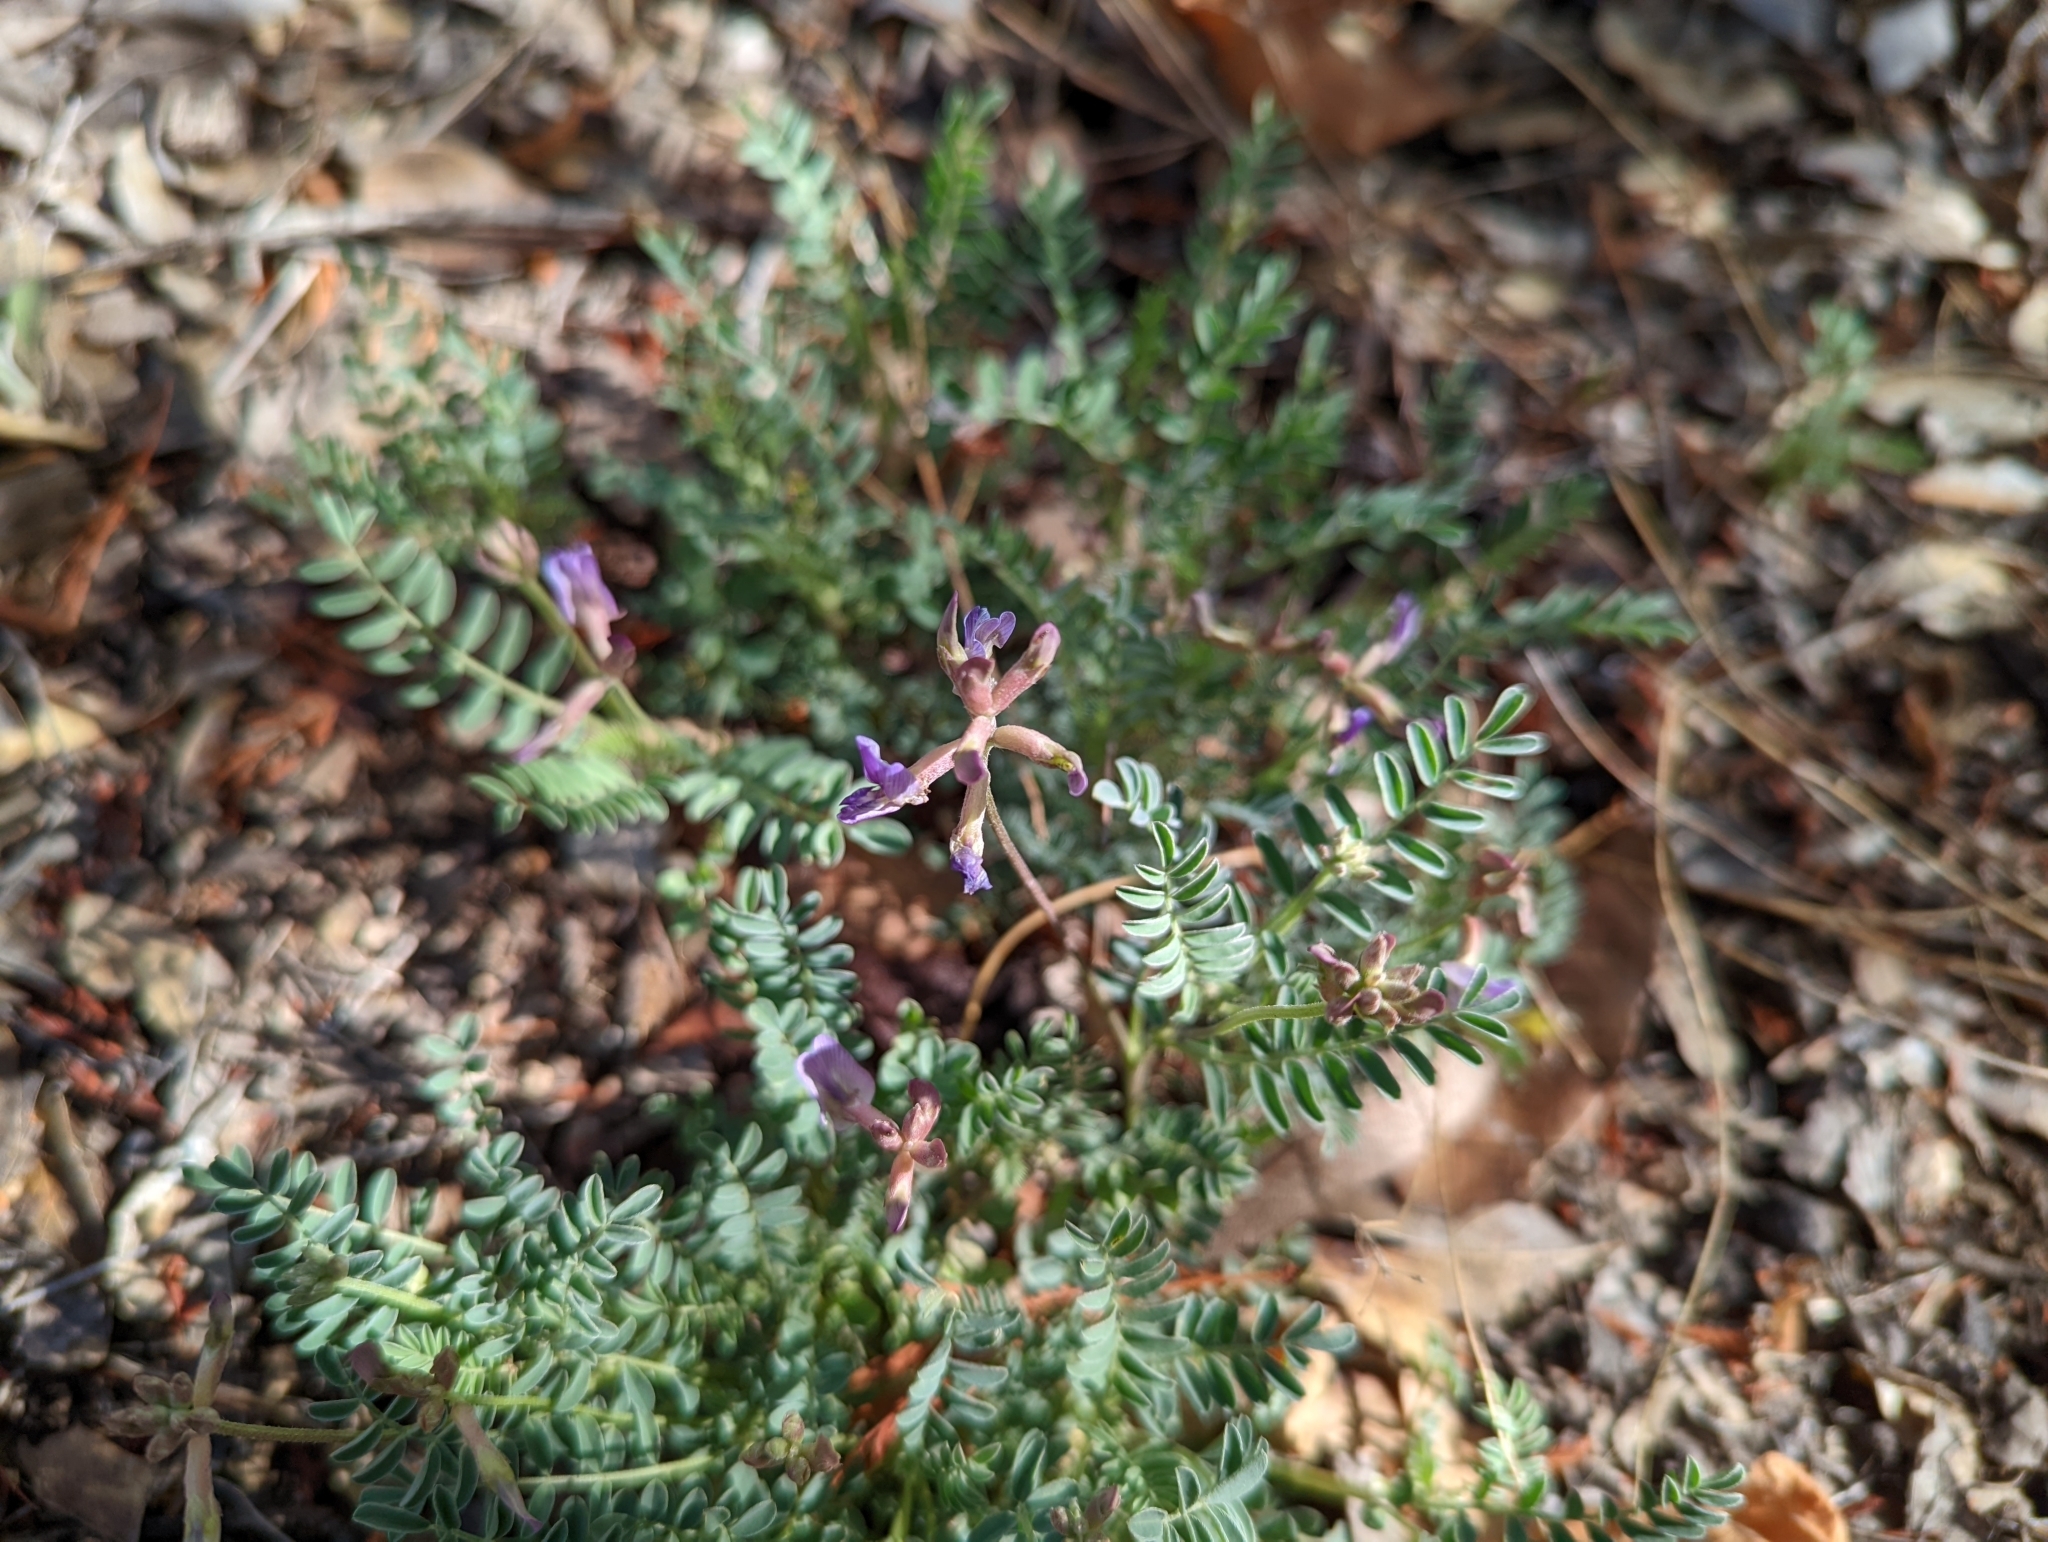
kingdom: Plantae
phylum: Tracheophyta
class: Magnoliopsida
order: Fabales
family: Fabaceae
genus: Astragalus
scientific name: Astragalus nothoxys
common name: Beaked milk-vetch
